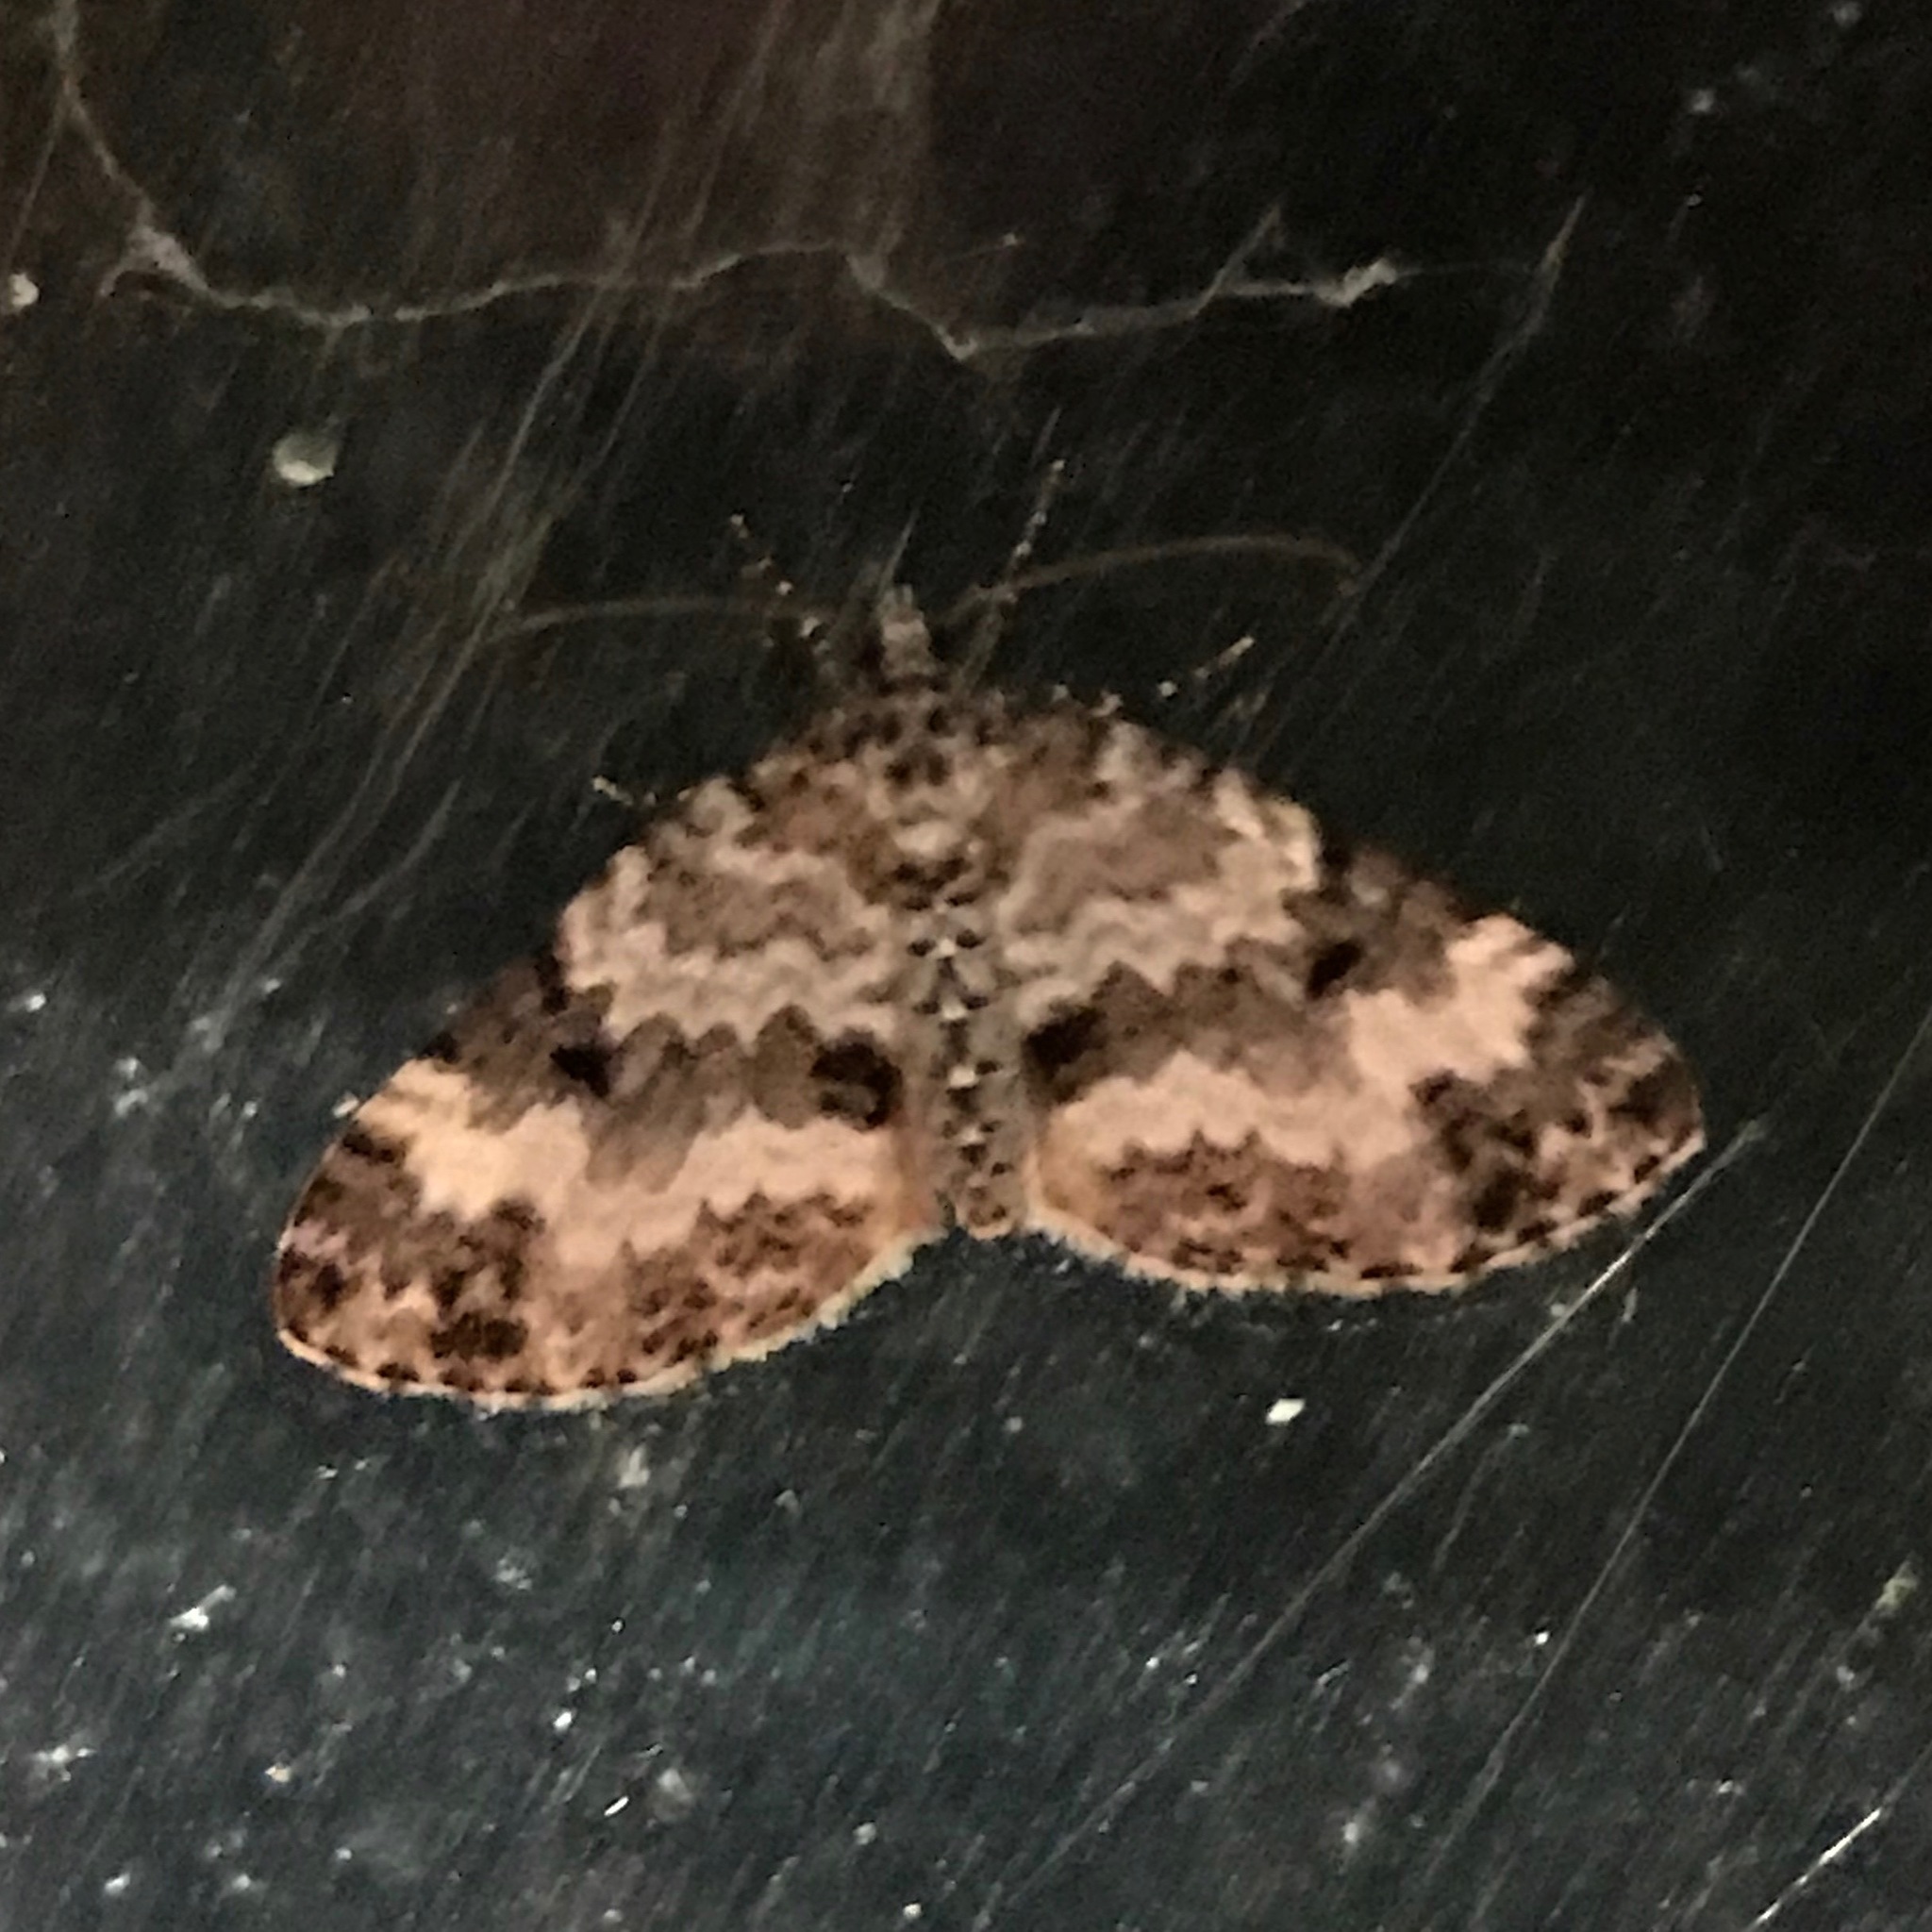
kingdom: Animalia
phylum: Arthropoda
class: Insecta
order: Lepidoptera
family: Geometridae
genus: Spargania
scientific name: Spargania magnoliata
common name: Double-banded carpet
